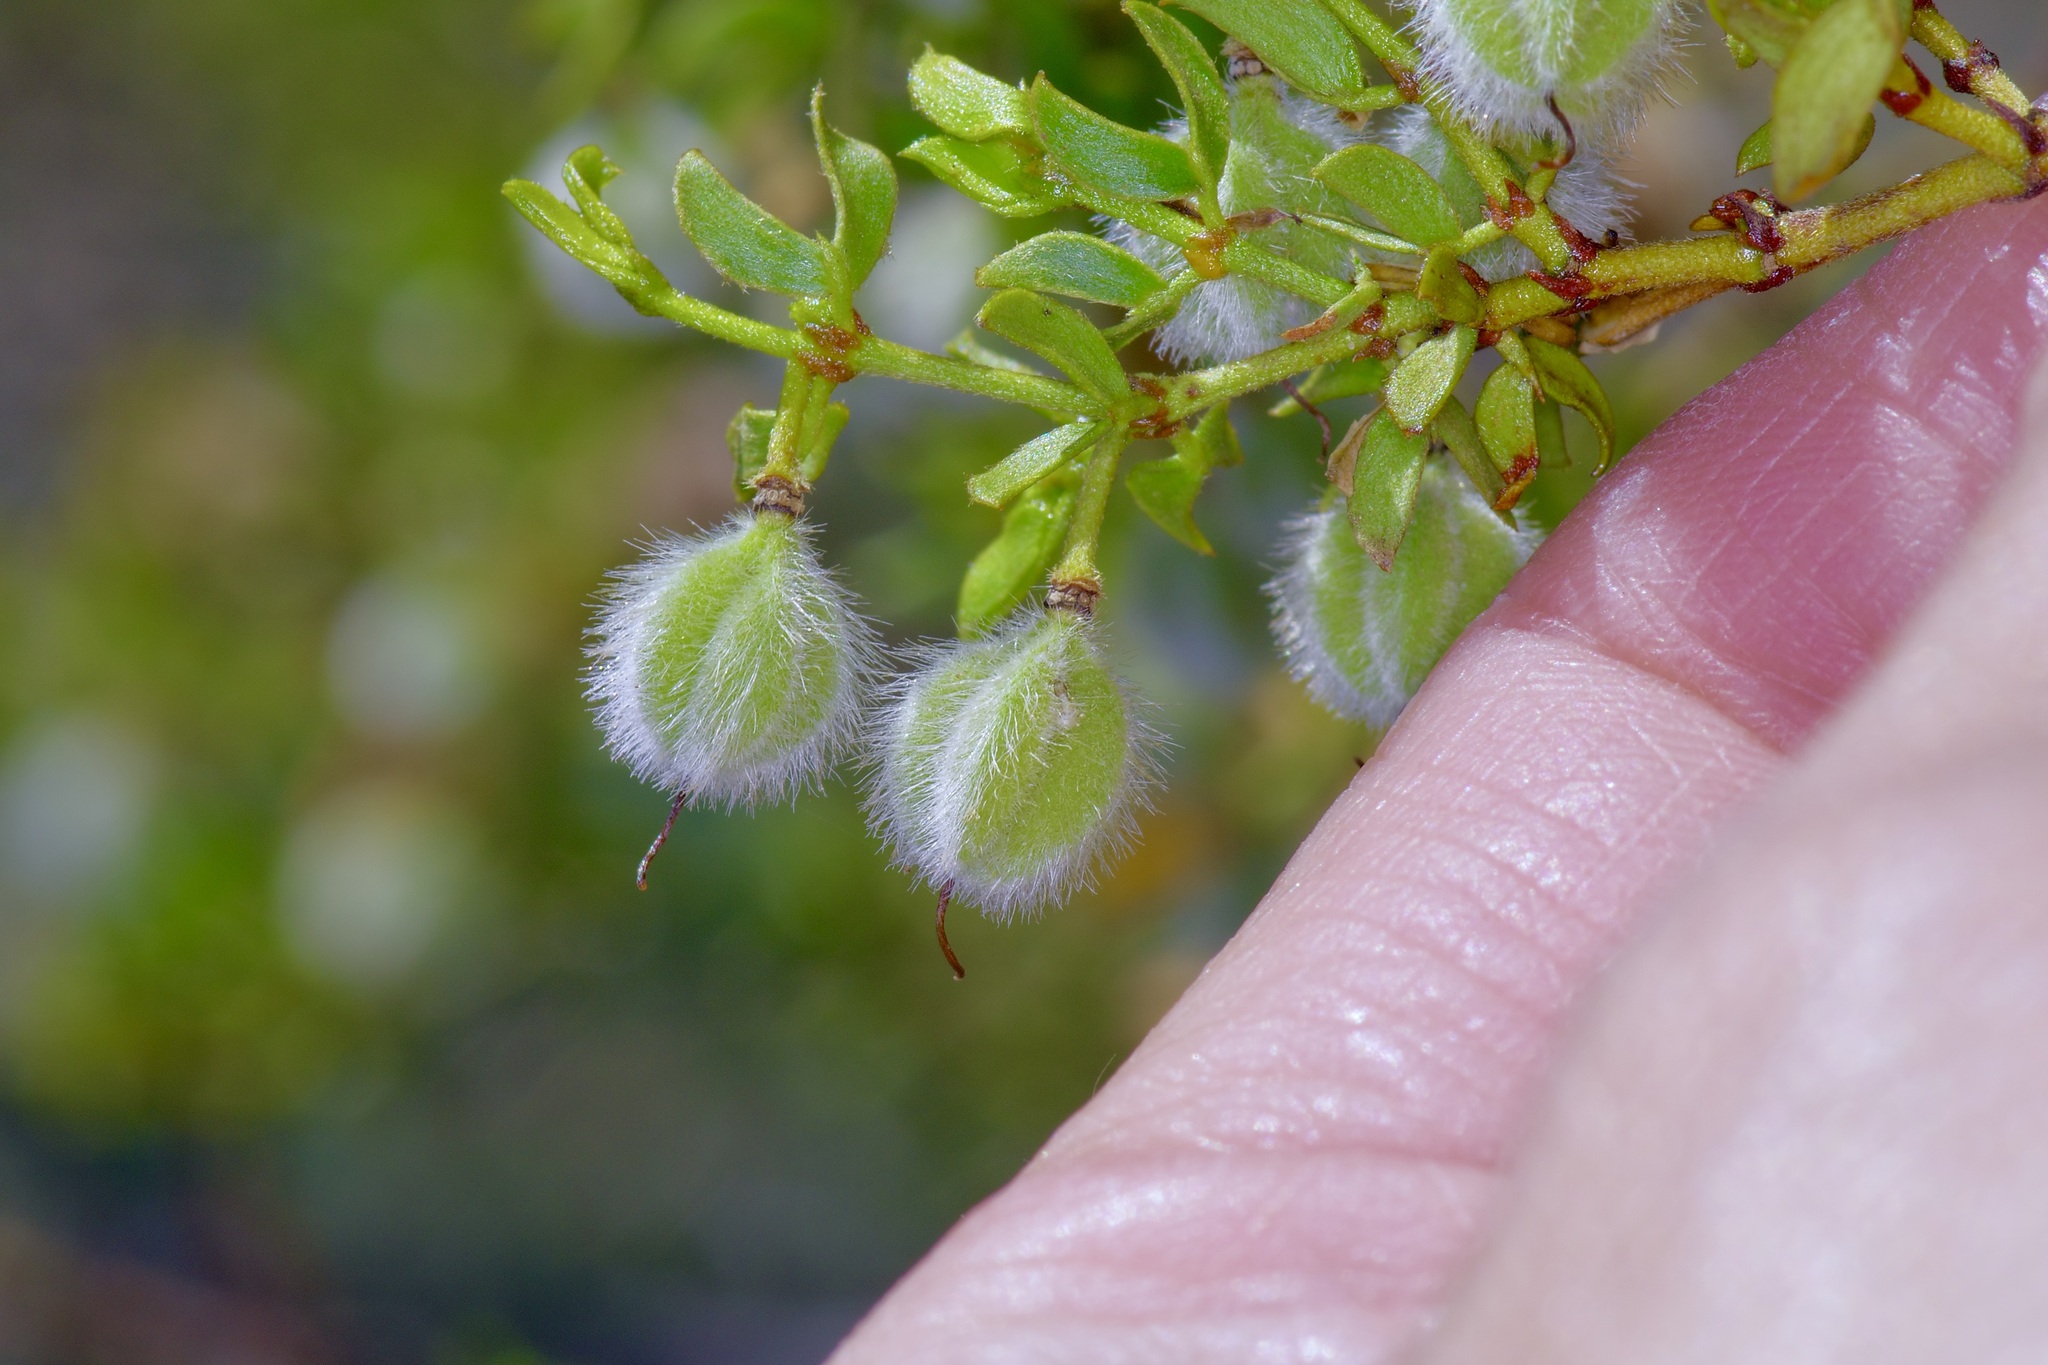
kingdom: Plantae
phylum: Tracheophyta
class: Magnoliopsida
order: Zygophyllales
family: Zygophyllaceae
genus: Larrea
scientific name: Larrea tridentata
